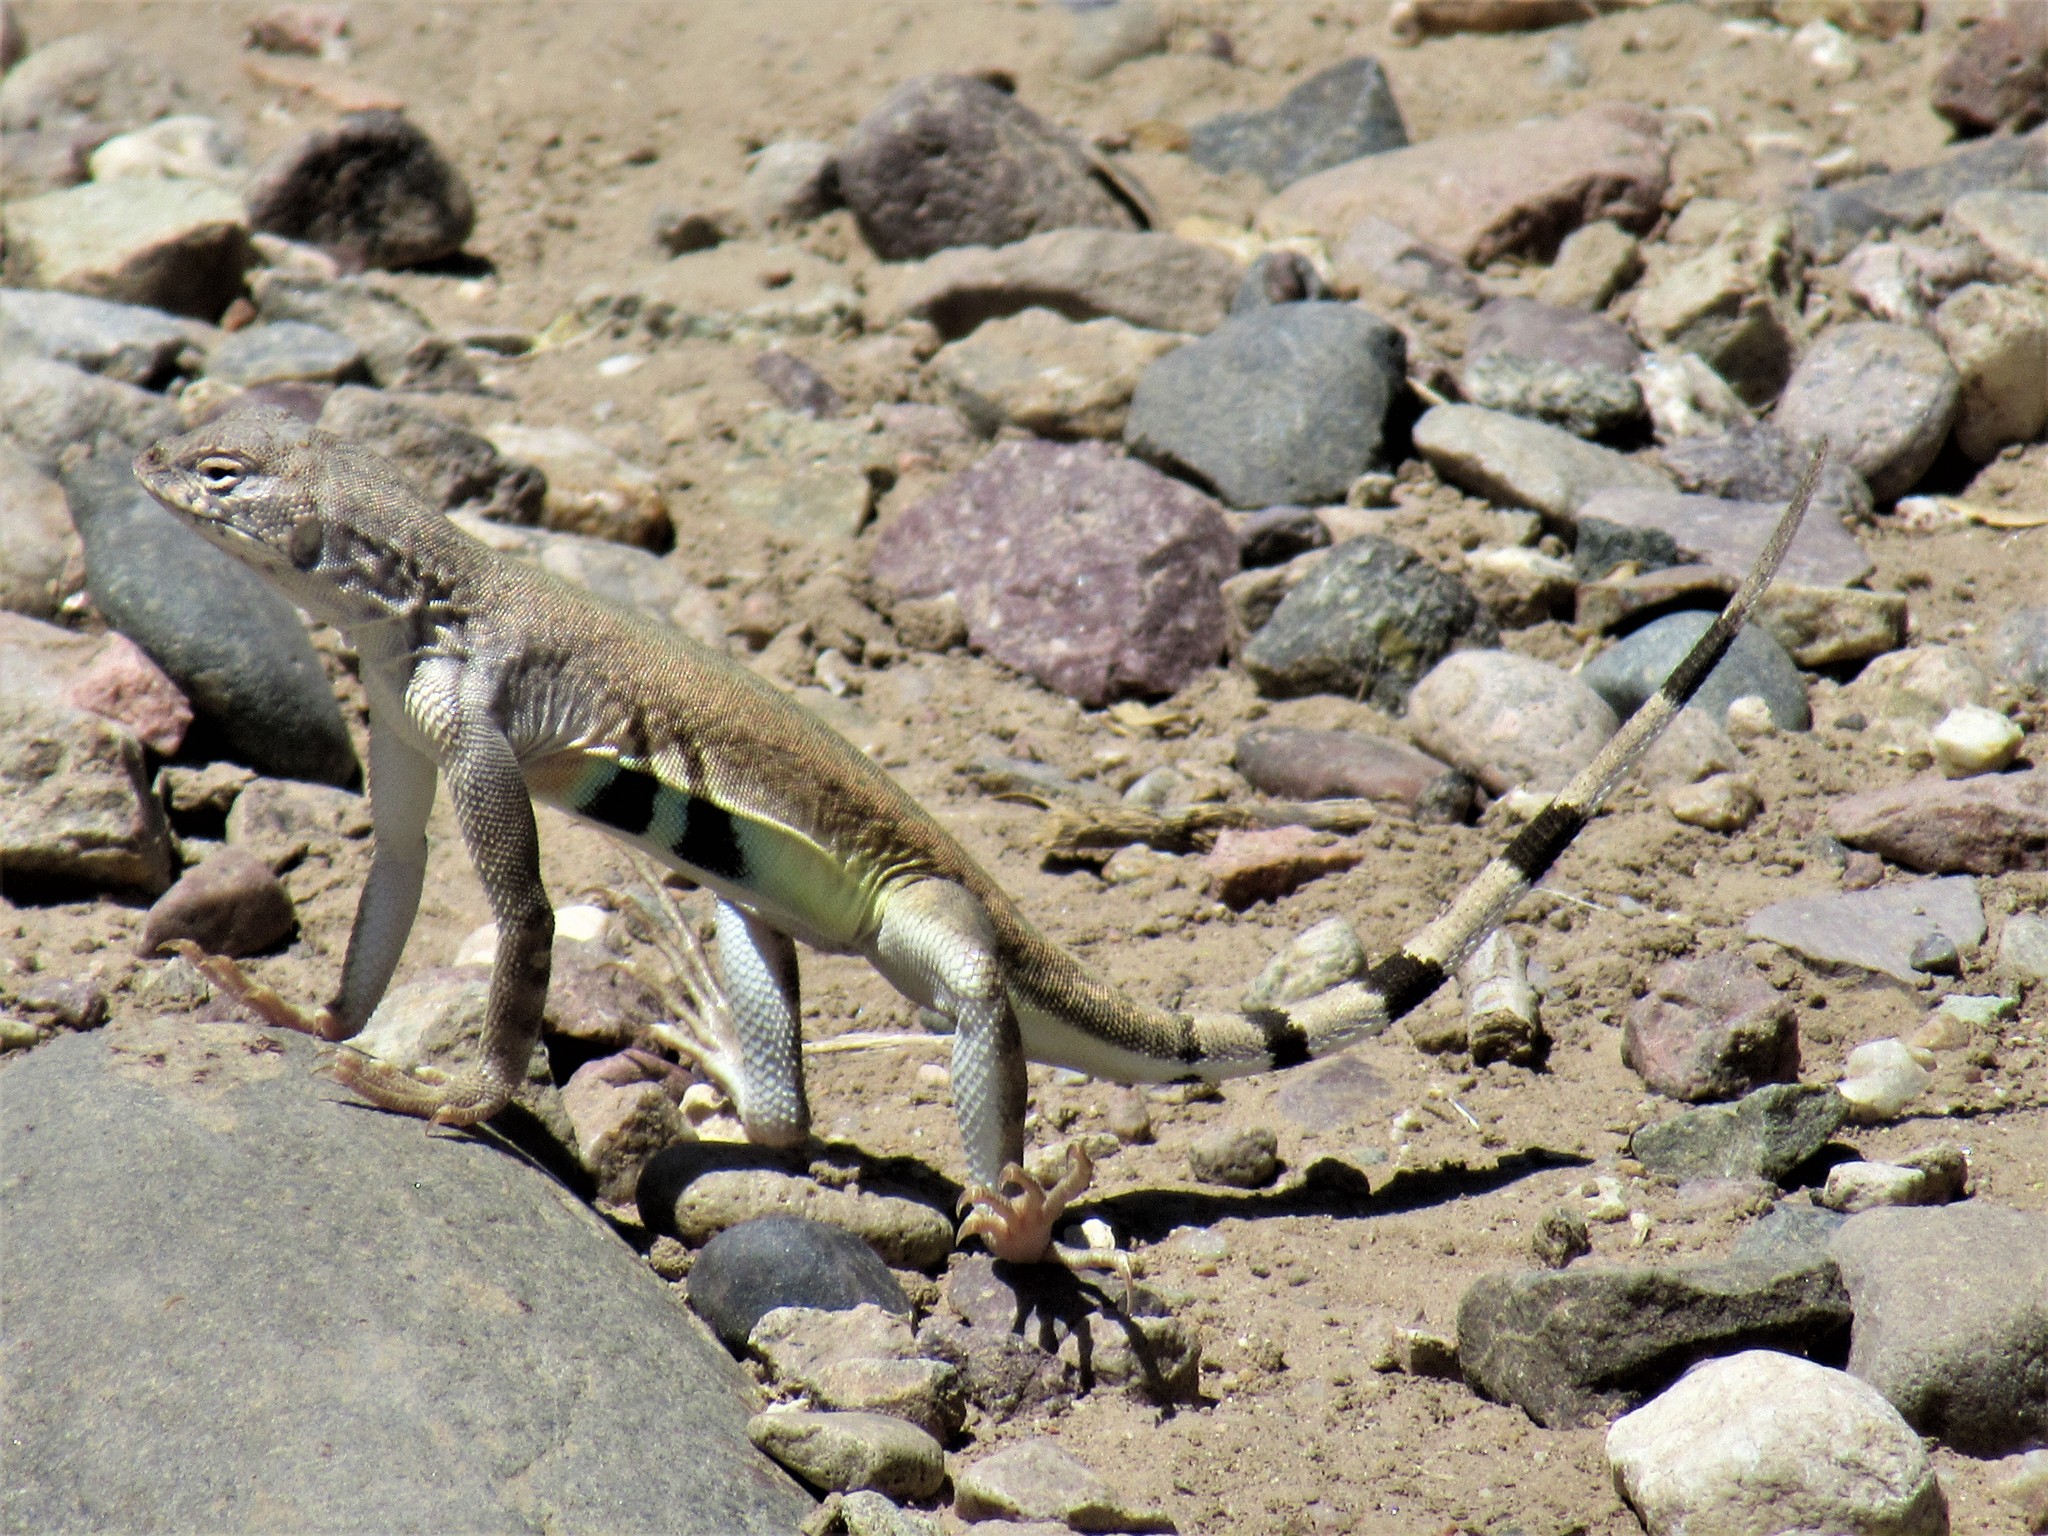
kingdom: Animalia
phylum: Chordata
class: Squamata
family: Phrynosomatidae
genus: Callisaurus
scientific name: Callisaurus draconoides
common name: Zebra-tailed lizard
